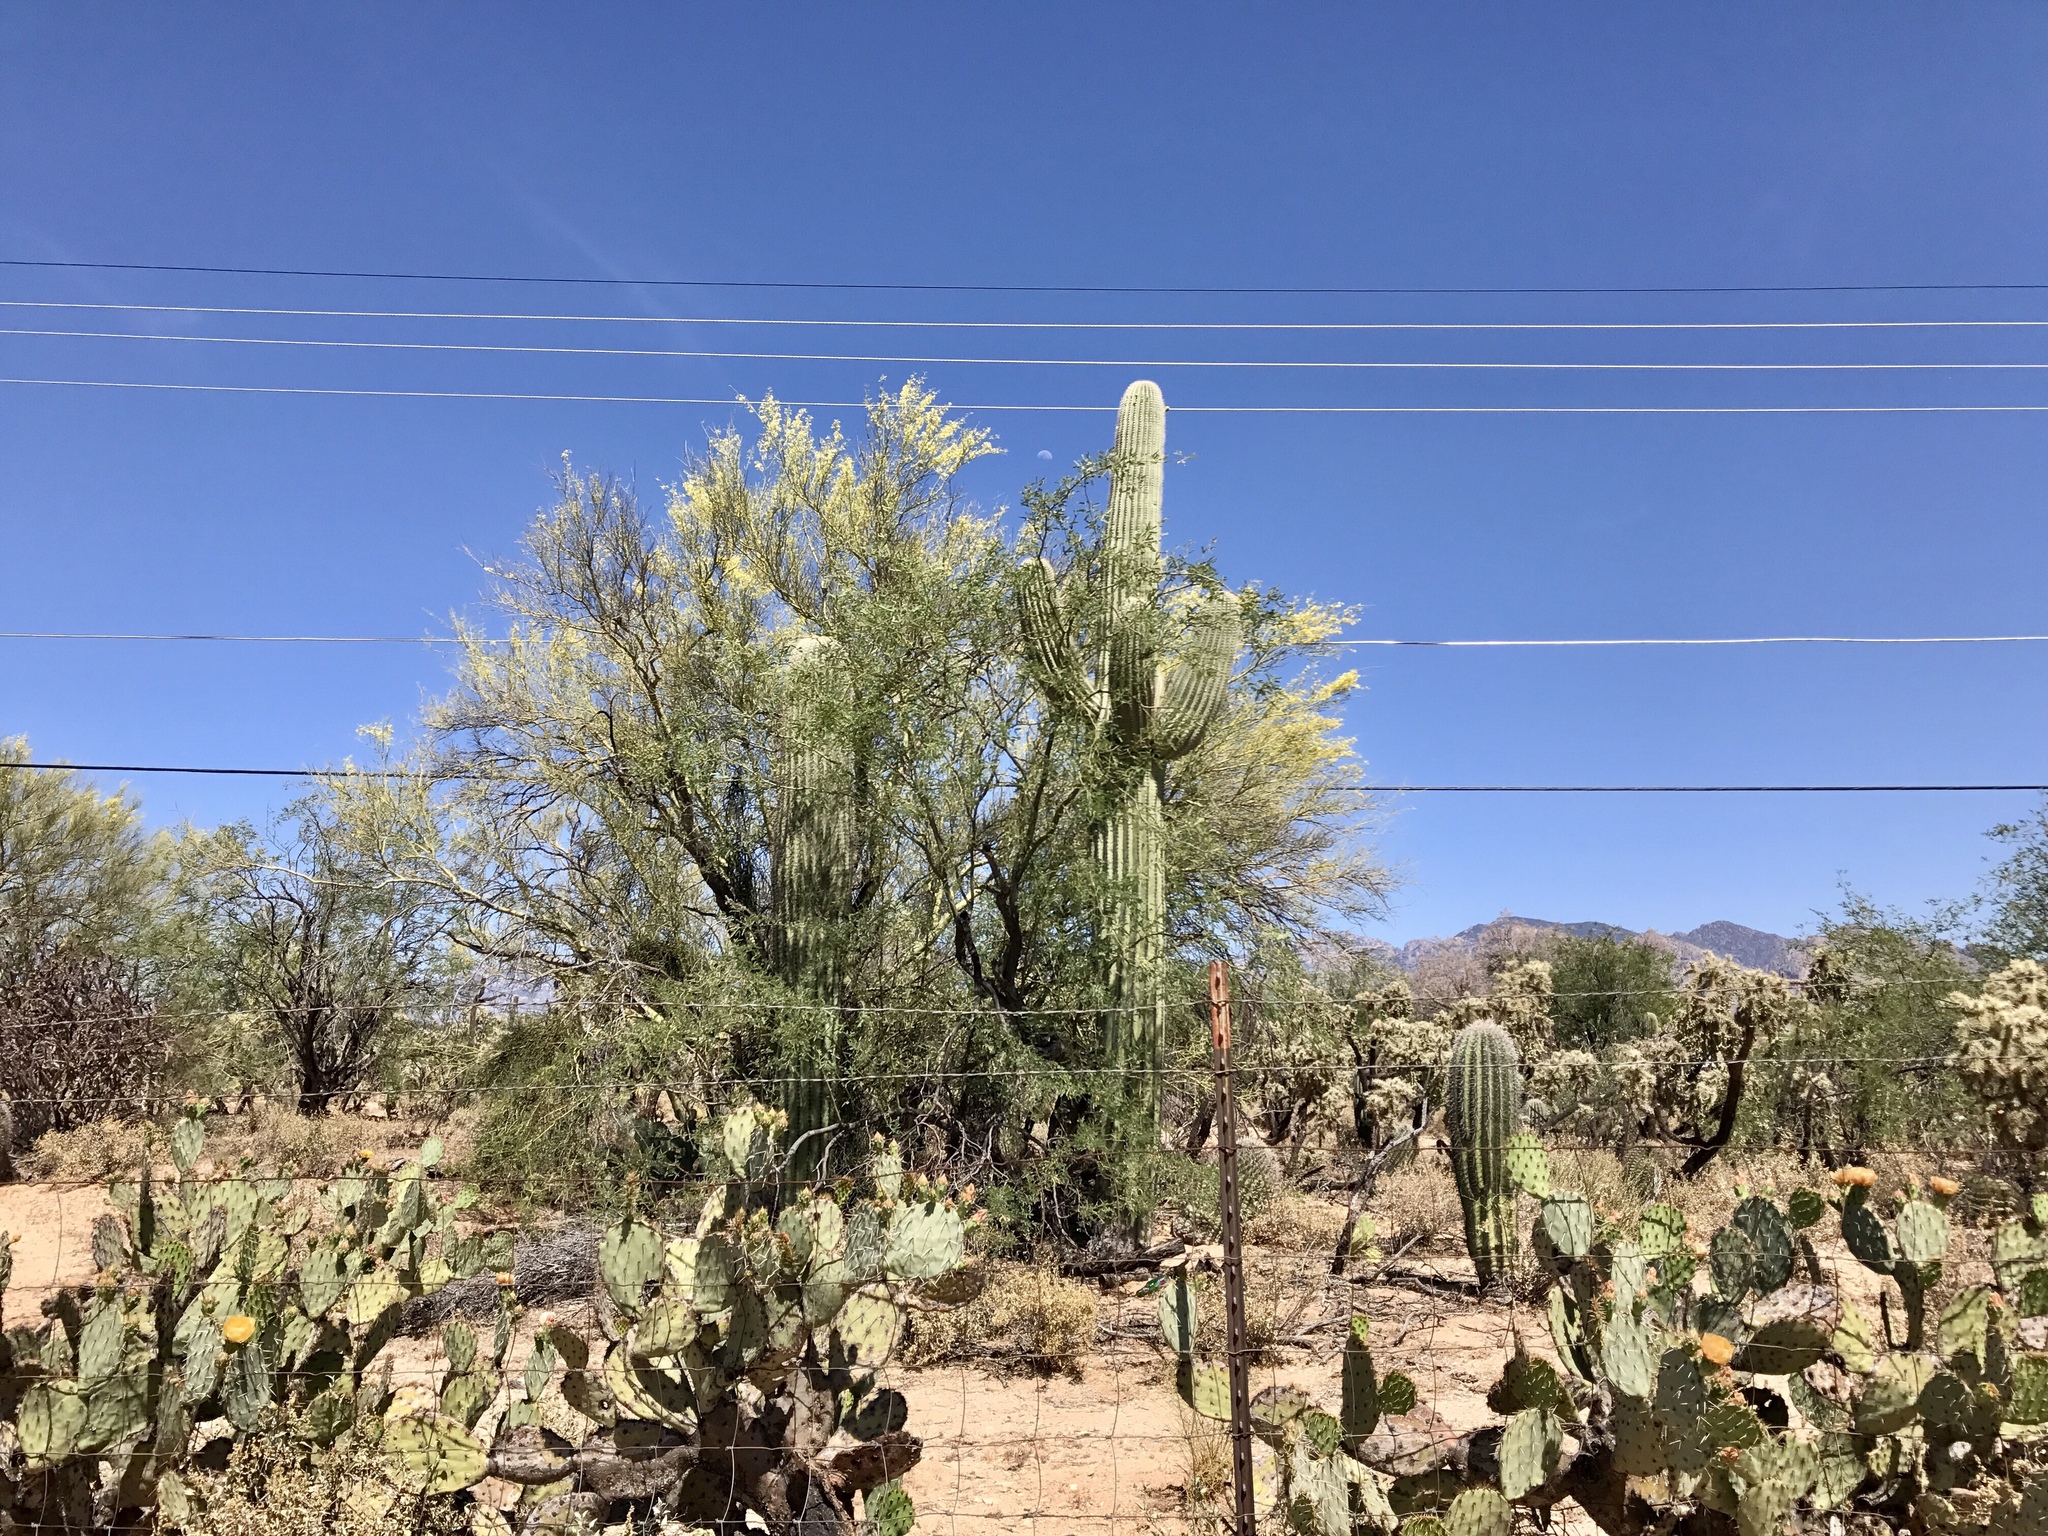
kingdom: Plantae
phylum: Tracheophyta
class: Magnoliopsida
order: Fabales
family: Fabaceae
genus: Parkinsonia
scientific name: Parkinsonia microphylla
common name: Yellow paloverde
